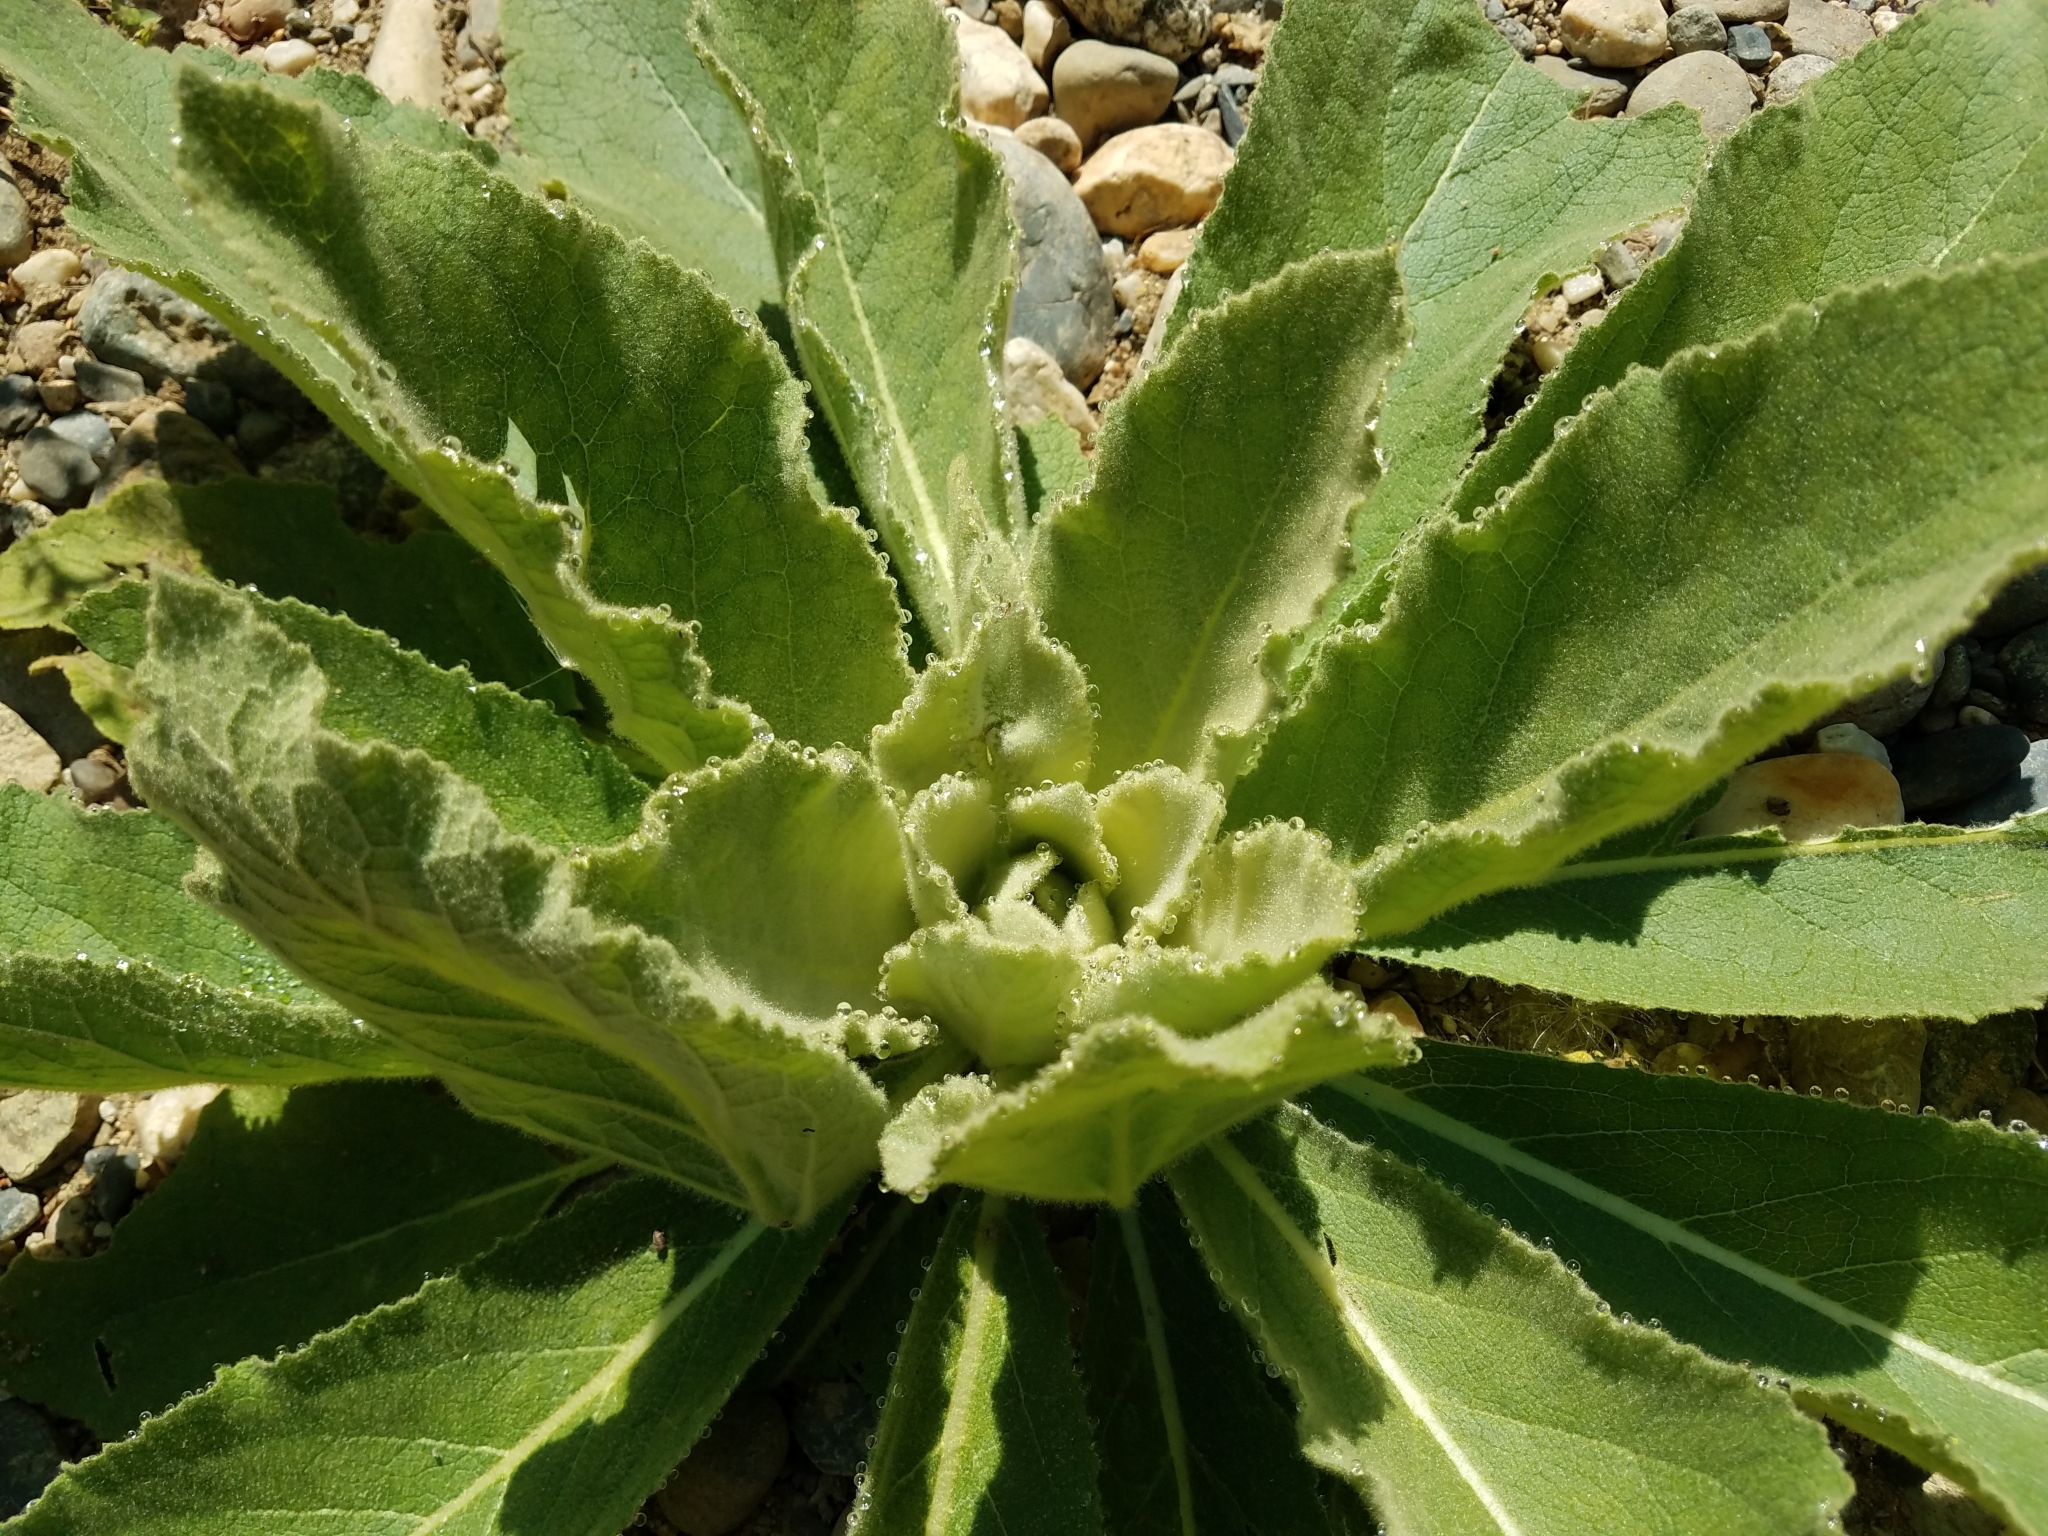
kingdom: Plantae
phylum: Tracheophyta
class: Magnoliopsida
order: Lamiales
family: Scrophulariaceae
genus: Verbascum
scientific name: Verbascum thapsus
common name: Common mullein
